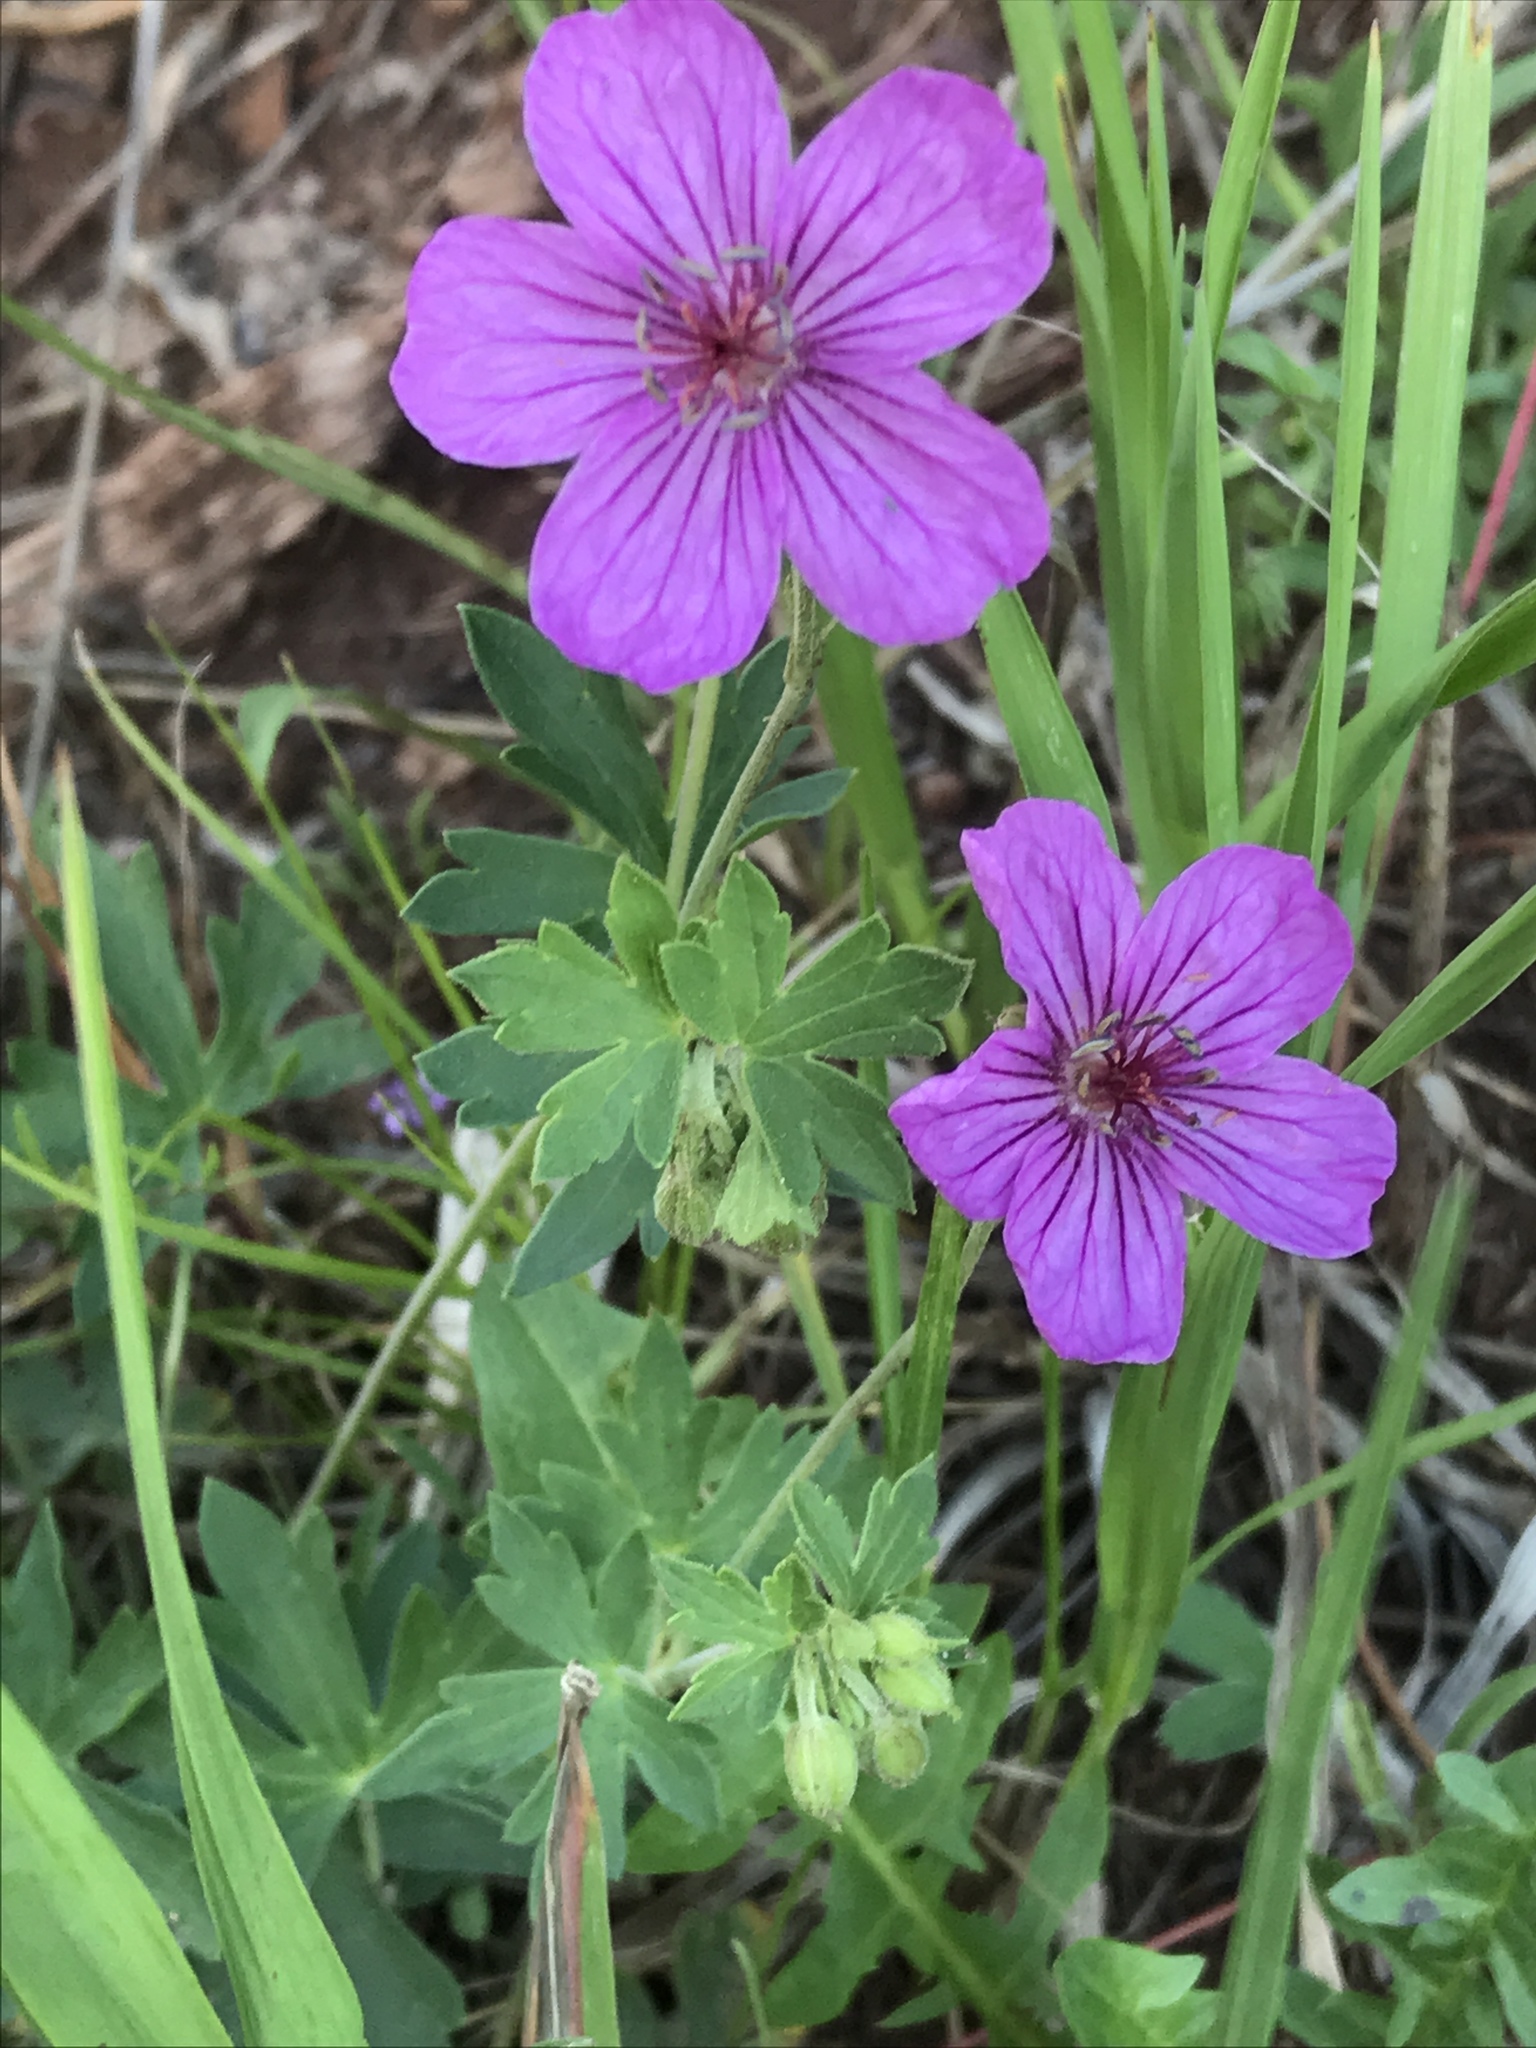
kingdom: Plantae
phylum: Tracheophyta
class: Magnoliopsida
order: Geraniales
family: Geraniaceae
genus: Geranium
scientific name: Geranium viscosissimum
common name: Purple geranium
